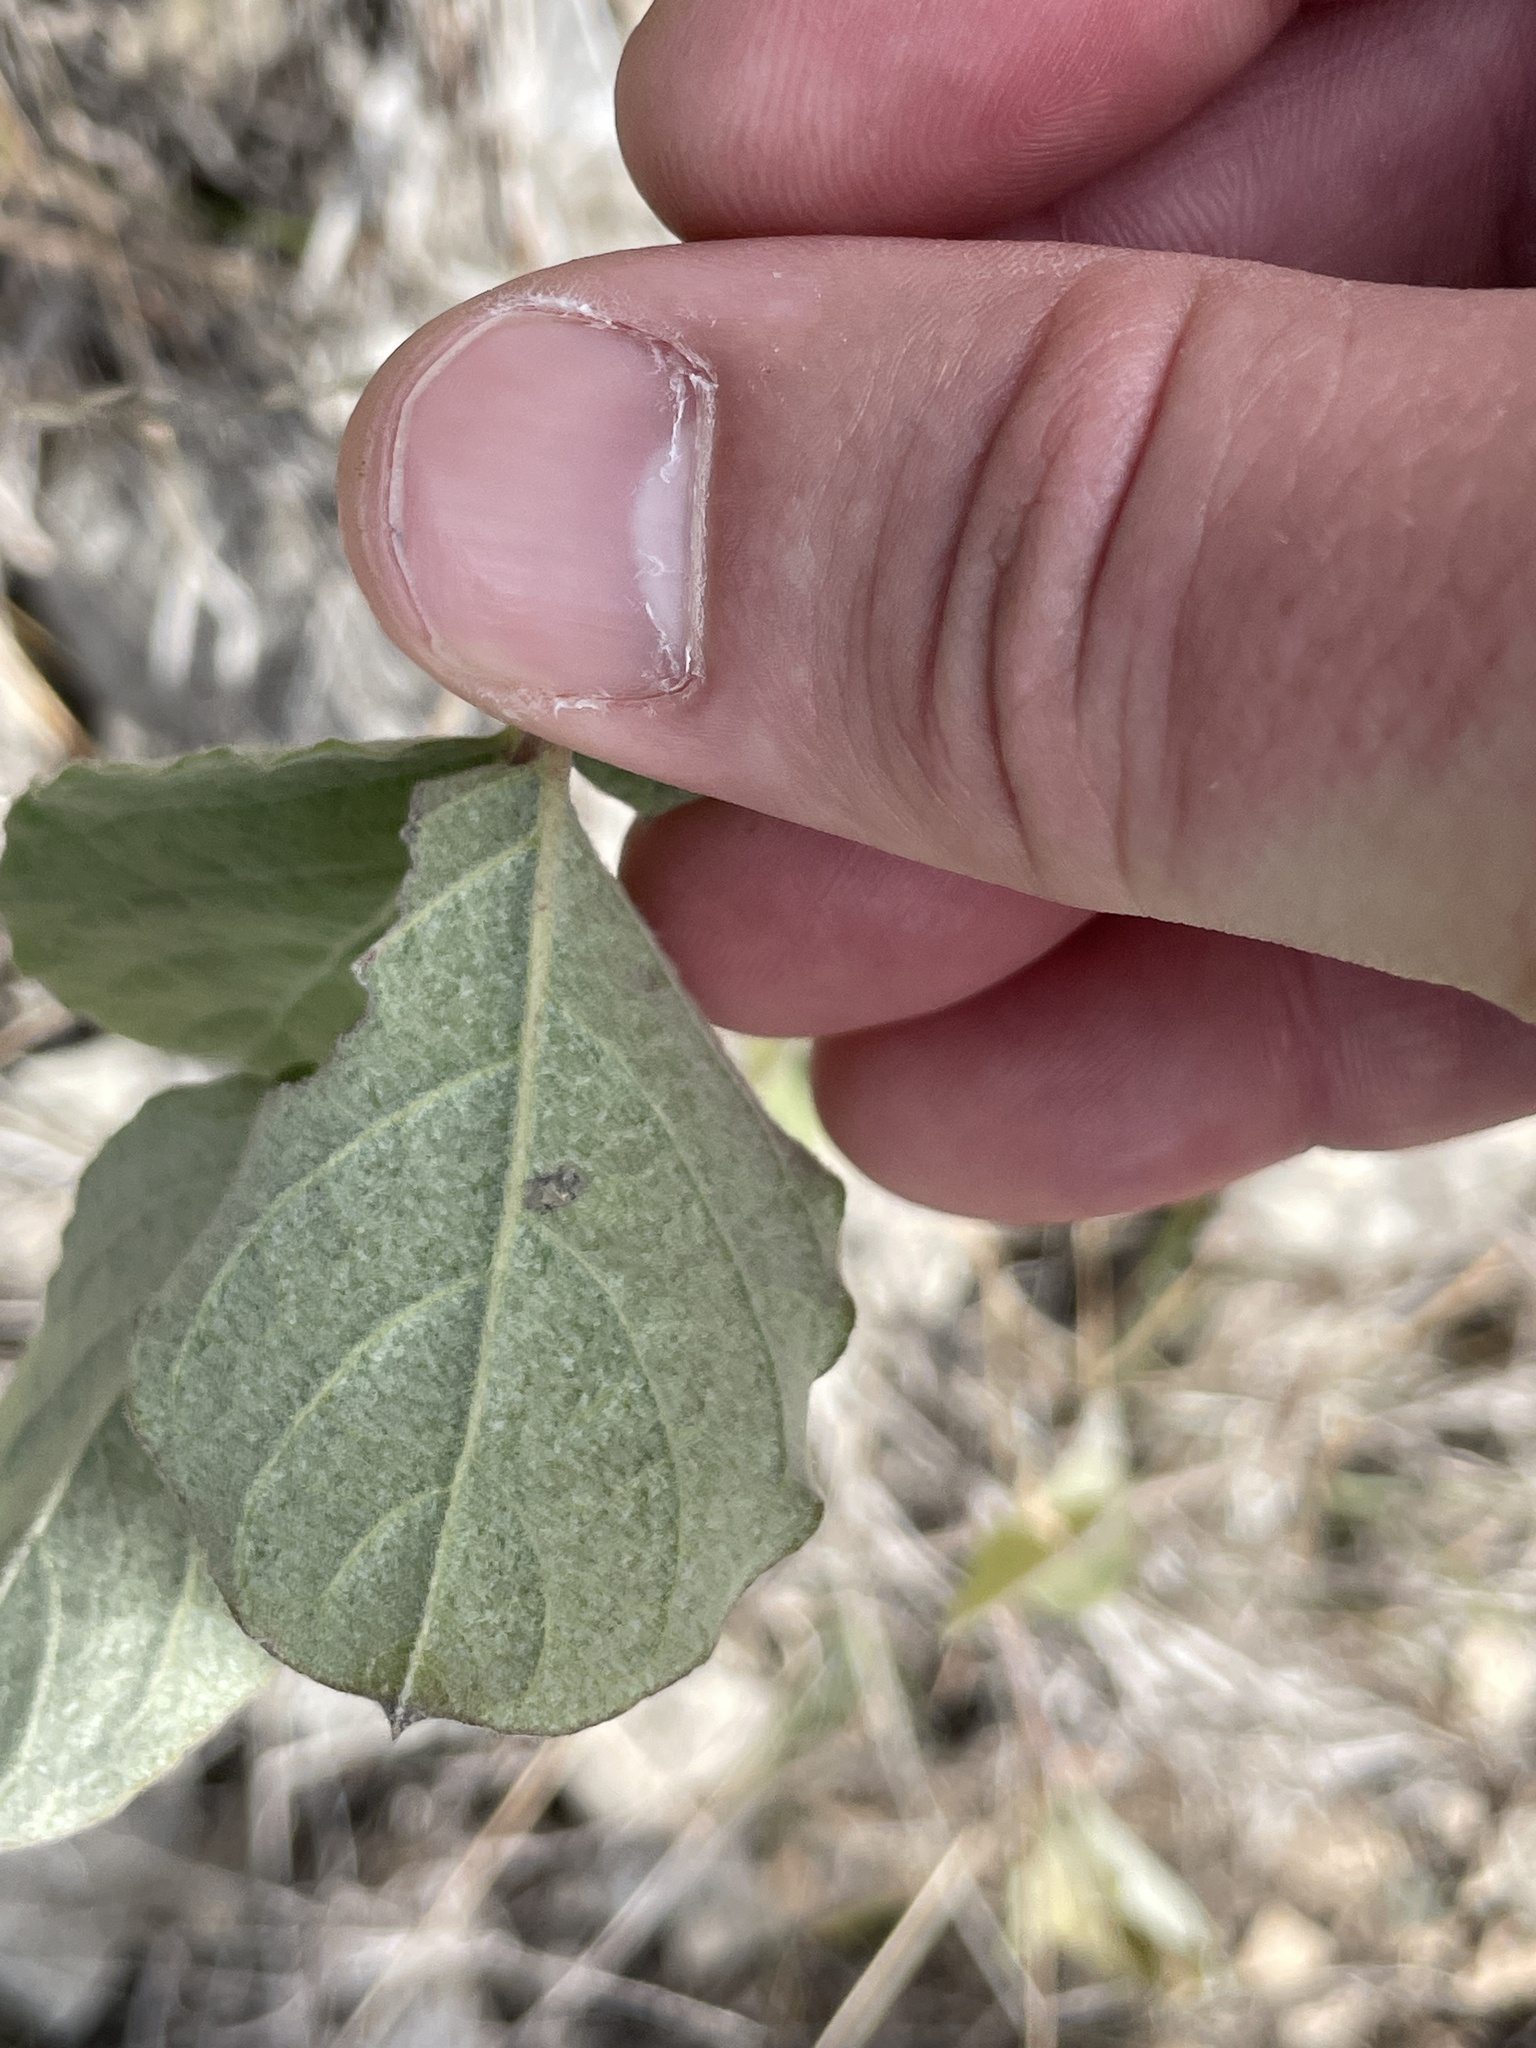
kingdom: Plantae
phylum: Tracheophyta
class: Magnoliopsida
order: Gentianales
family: Apocynaceae
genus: Mandevilla
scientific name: Mandevilla macrosiphon
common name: Plateau rocktrumpet
